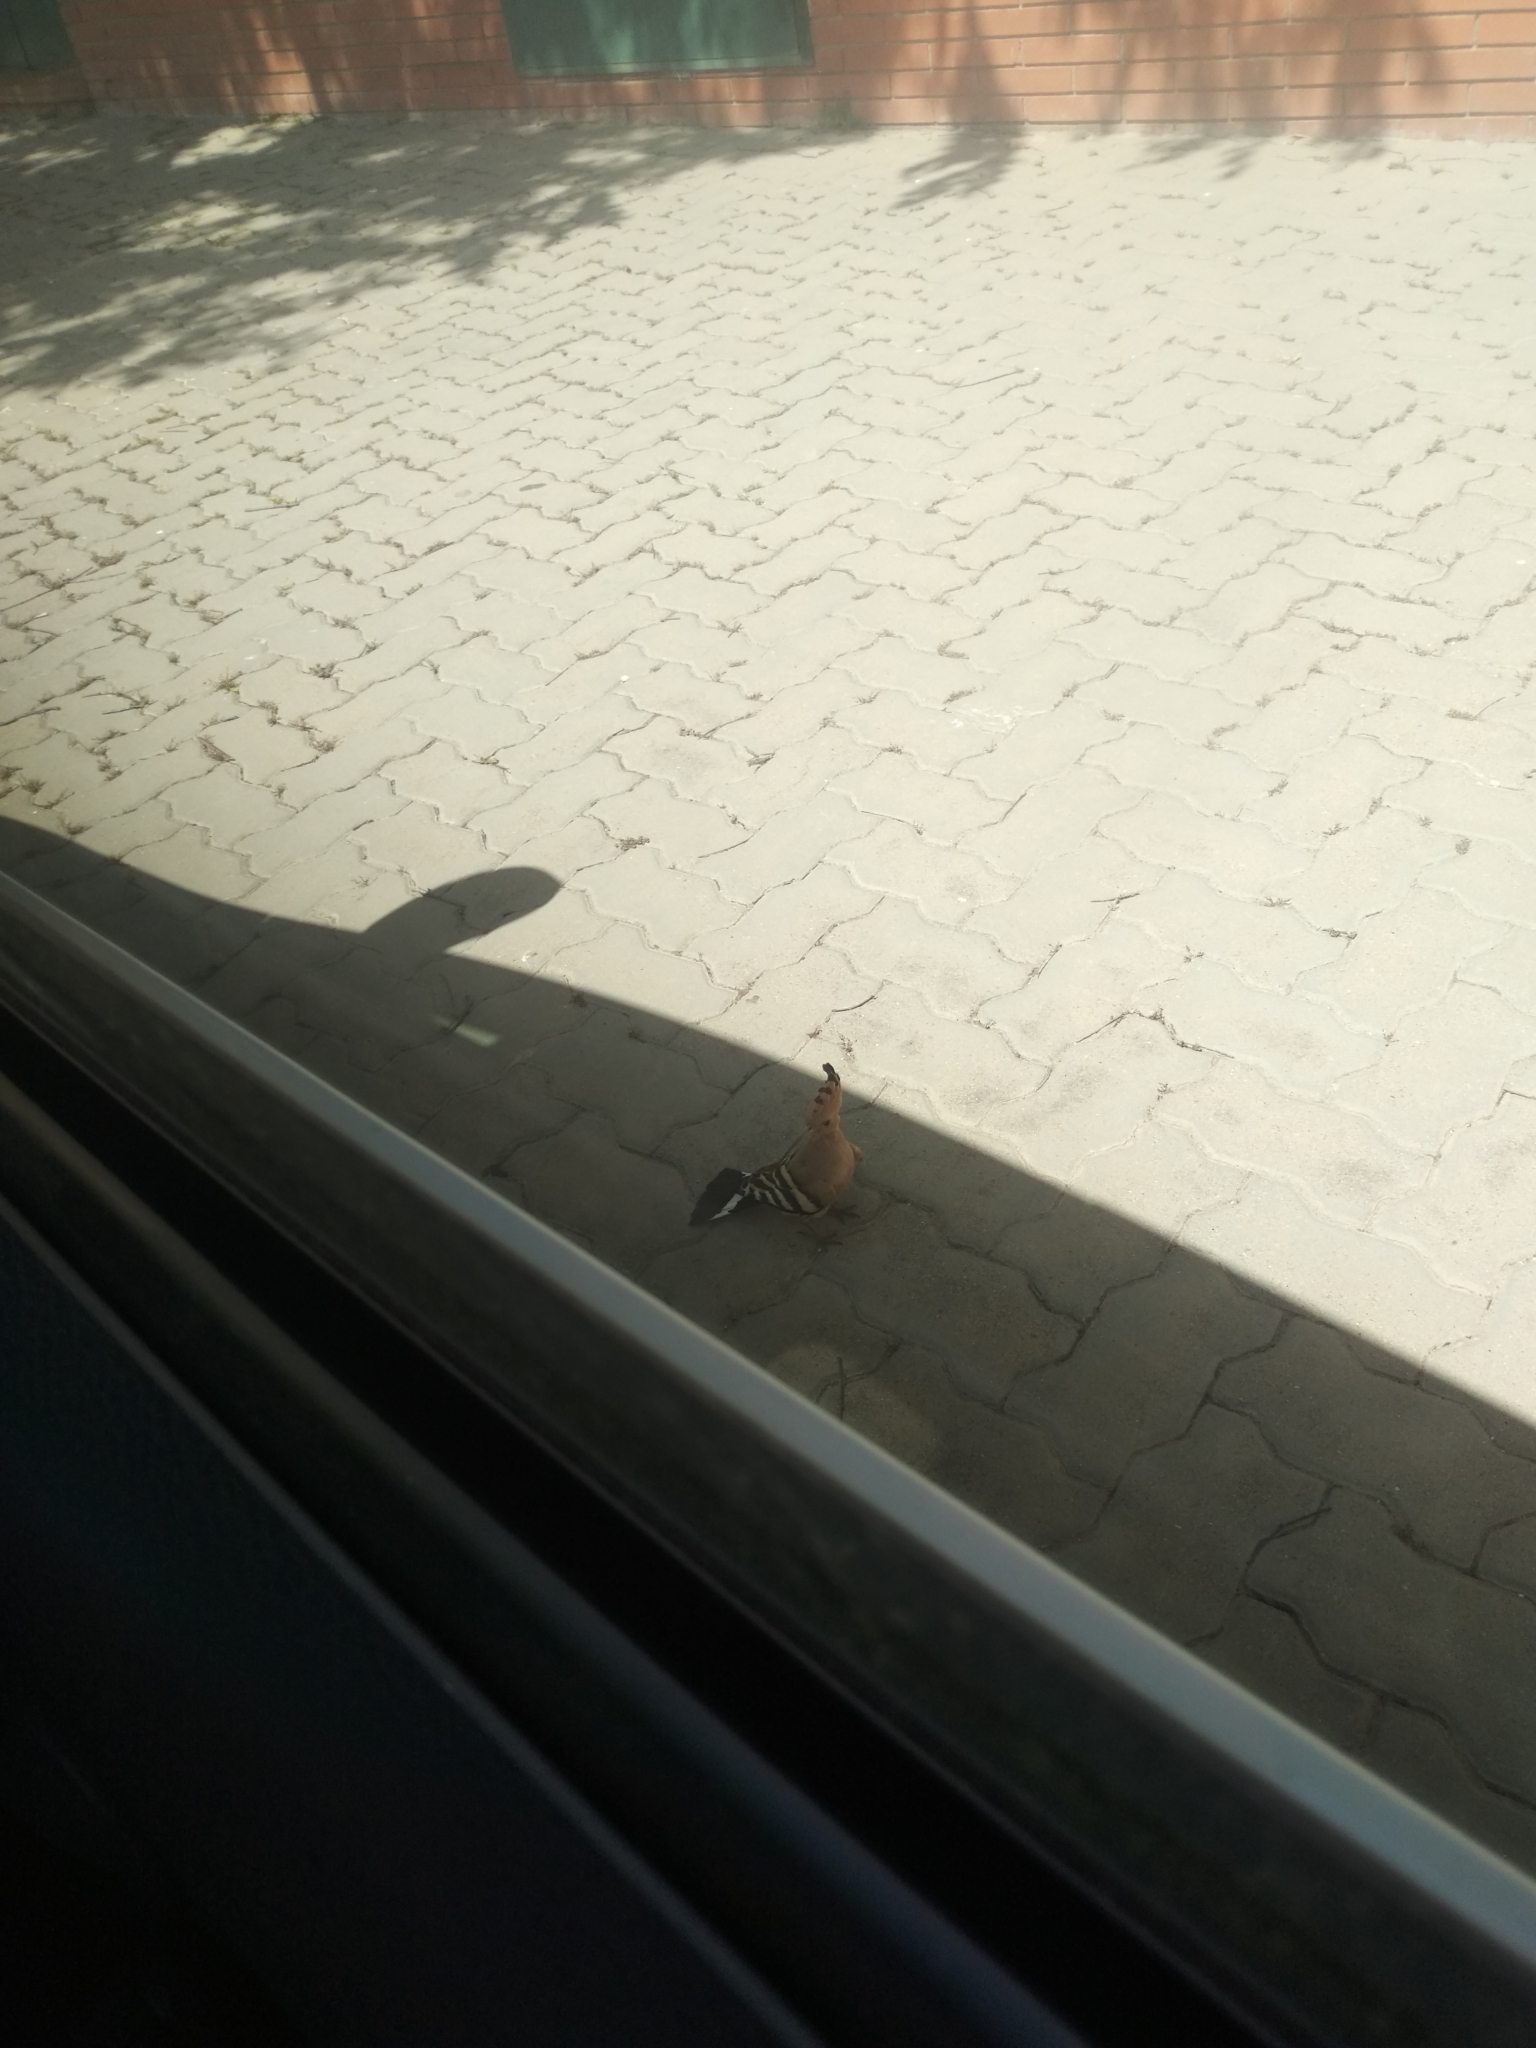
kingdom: Animalia
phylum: Chordata
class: Aves
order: Bucerotiformes
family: Upupidae
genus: Upupa
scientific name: Upupa epops
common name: Eurasian hoopoe
